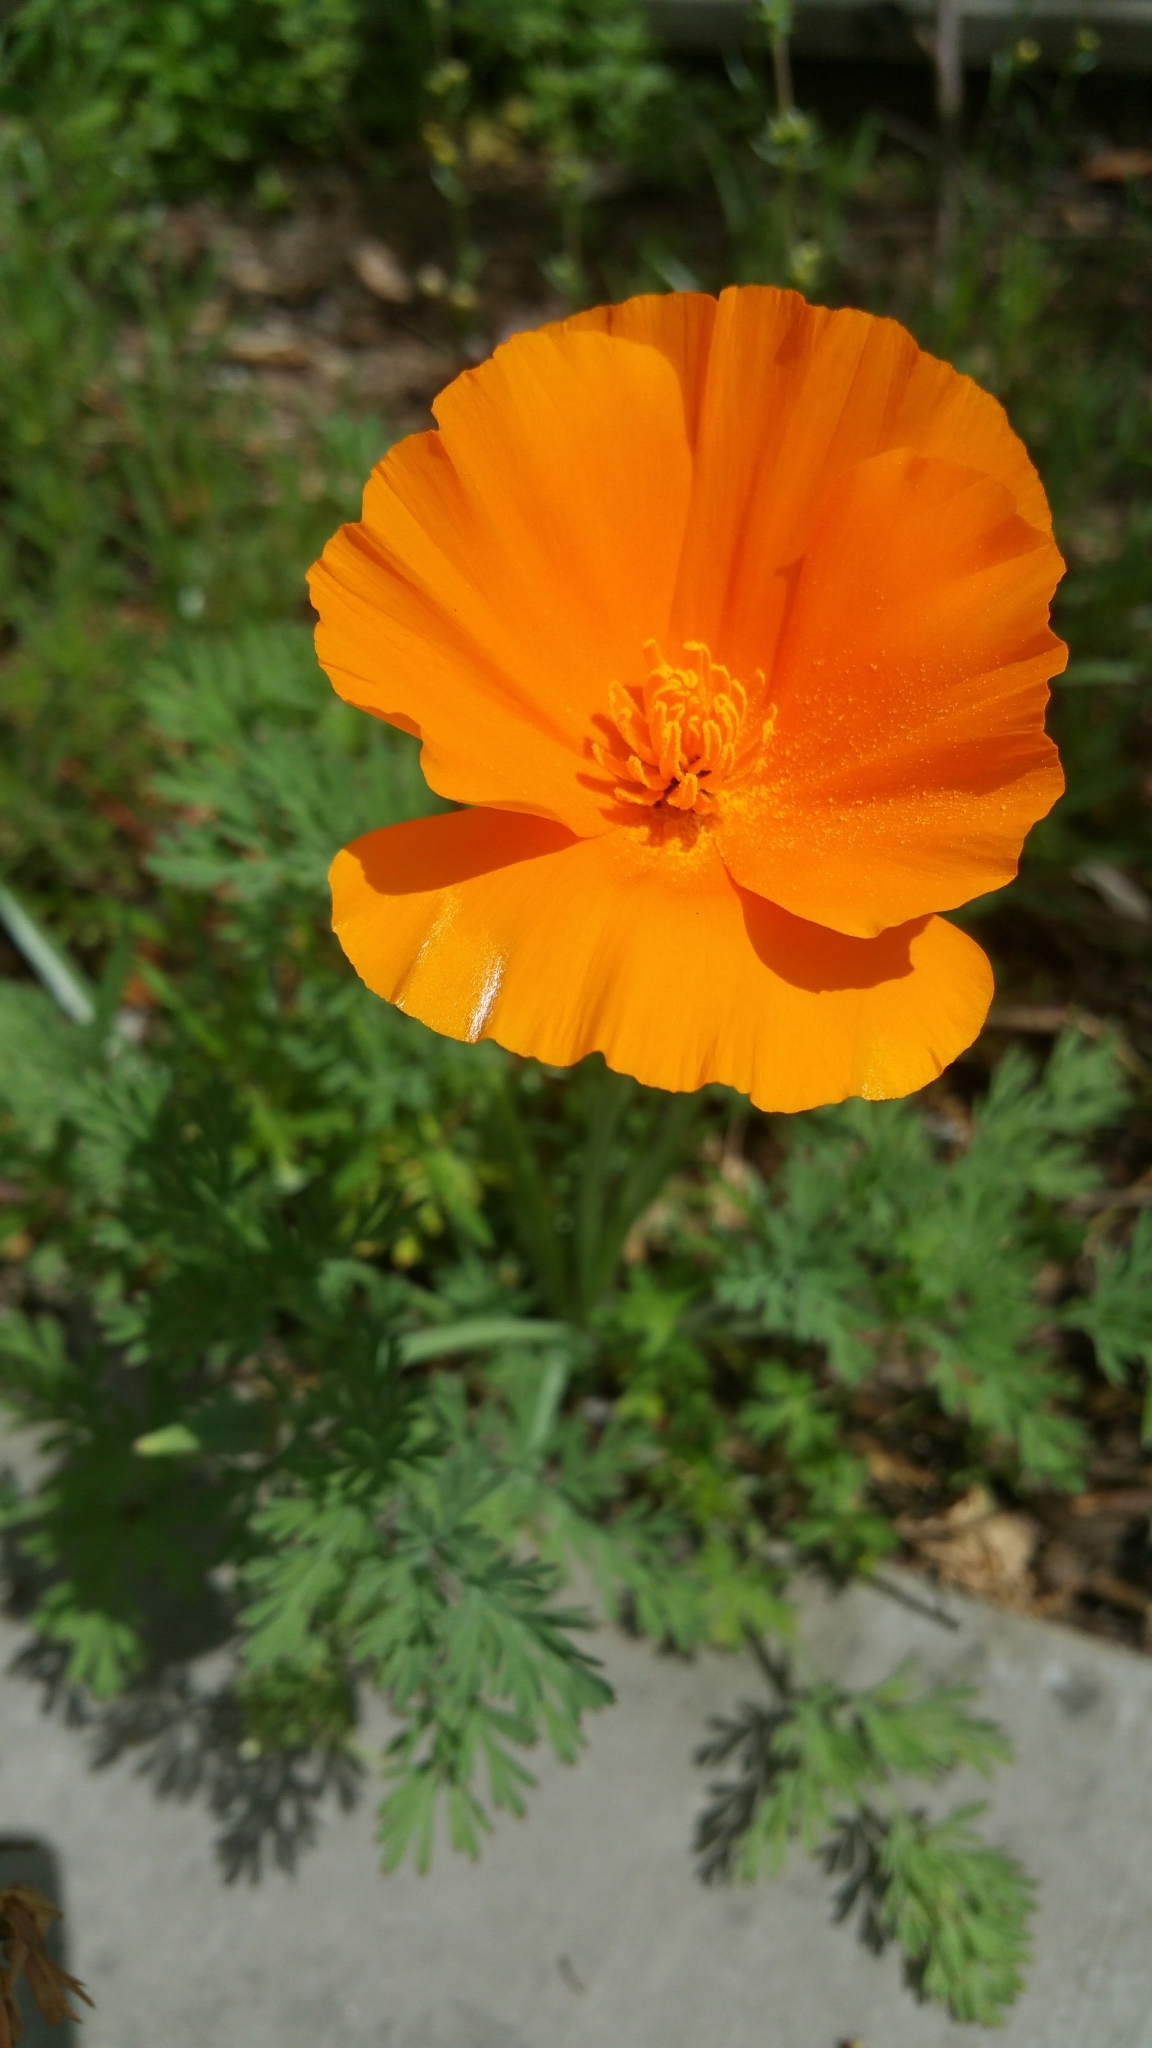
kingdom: Plantae
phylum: Tracheophyta
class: Magnoliopsida
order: Ranunculales
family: Papaveraceae
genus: Eschscholzia
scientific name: Eschscholzia californica
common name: California poppy
